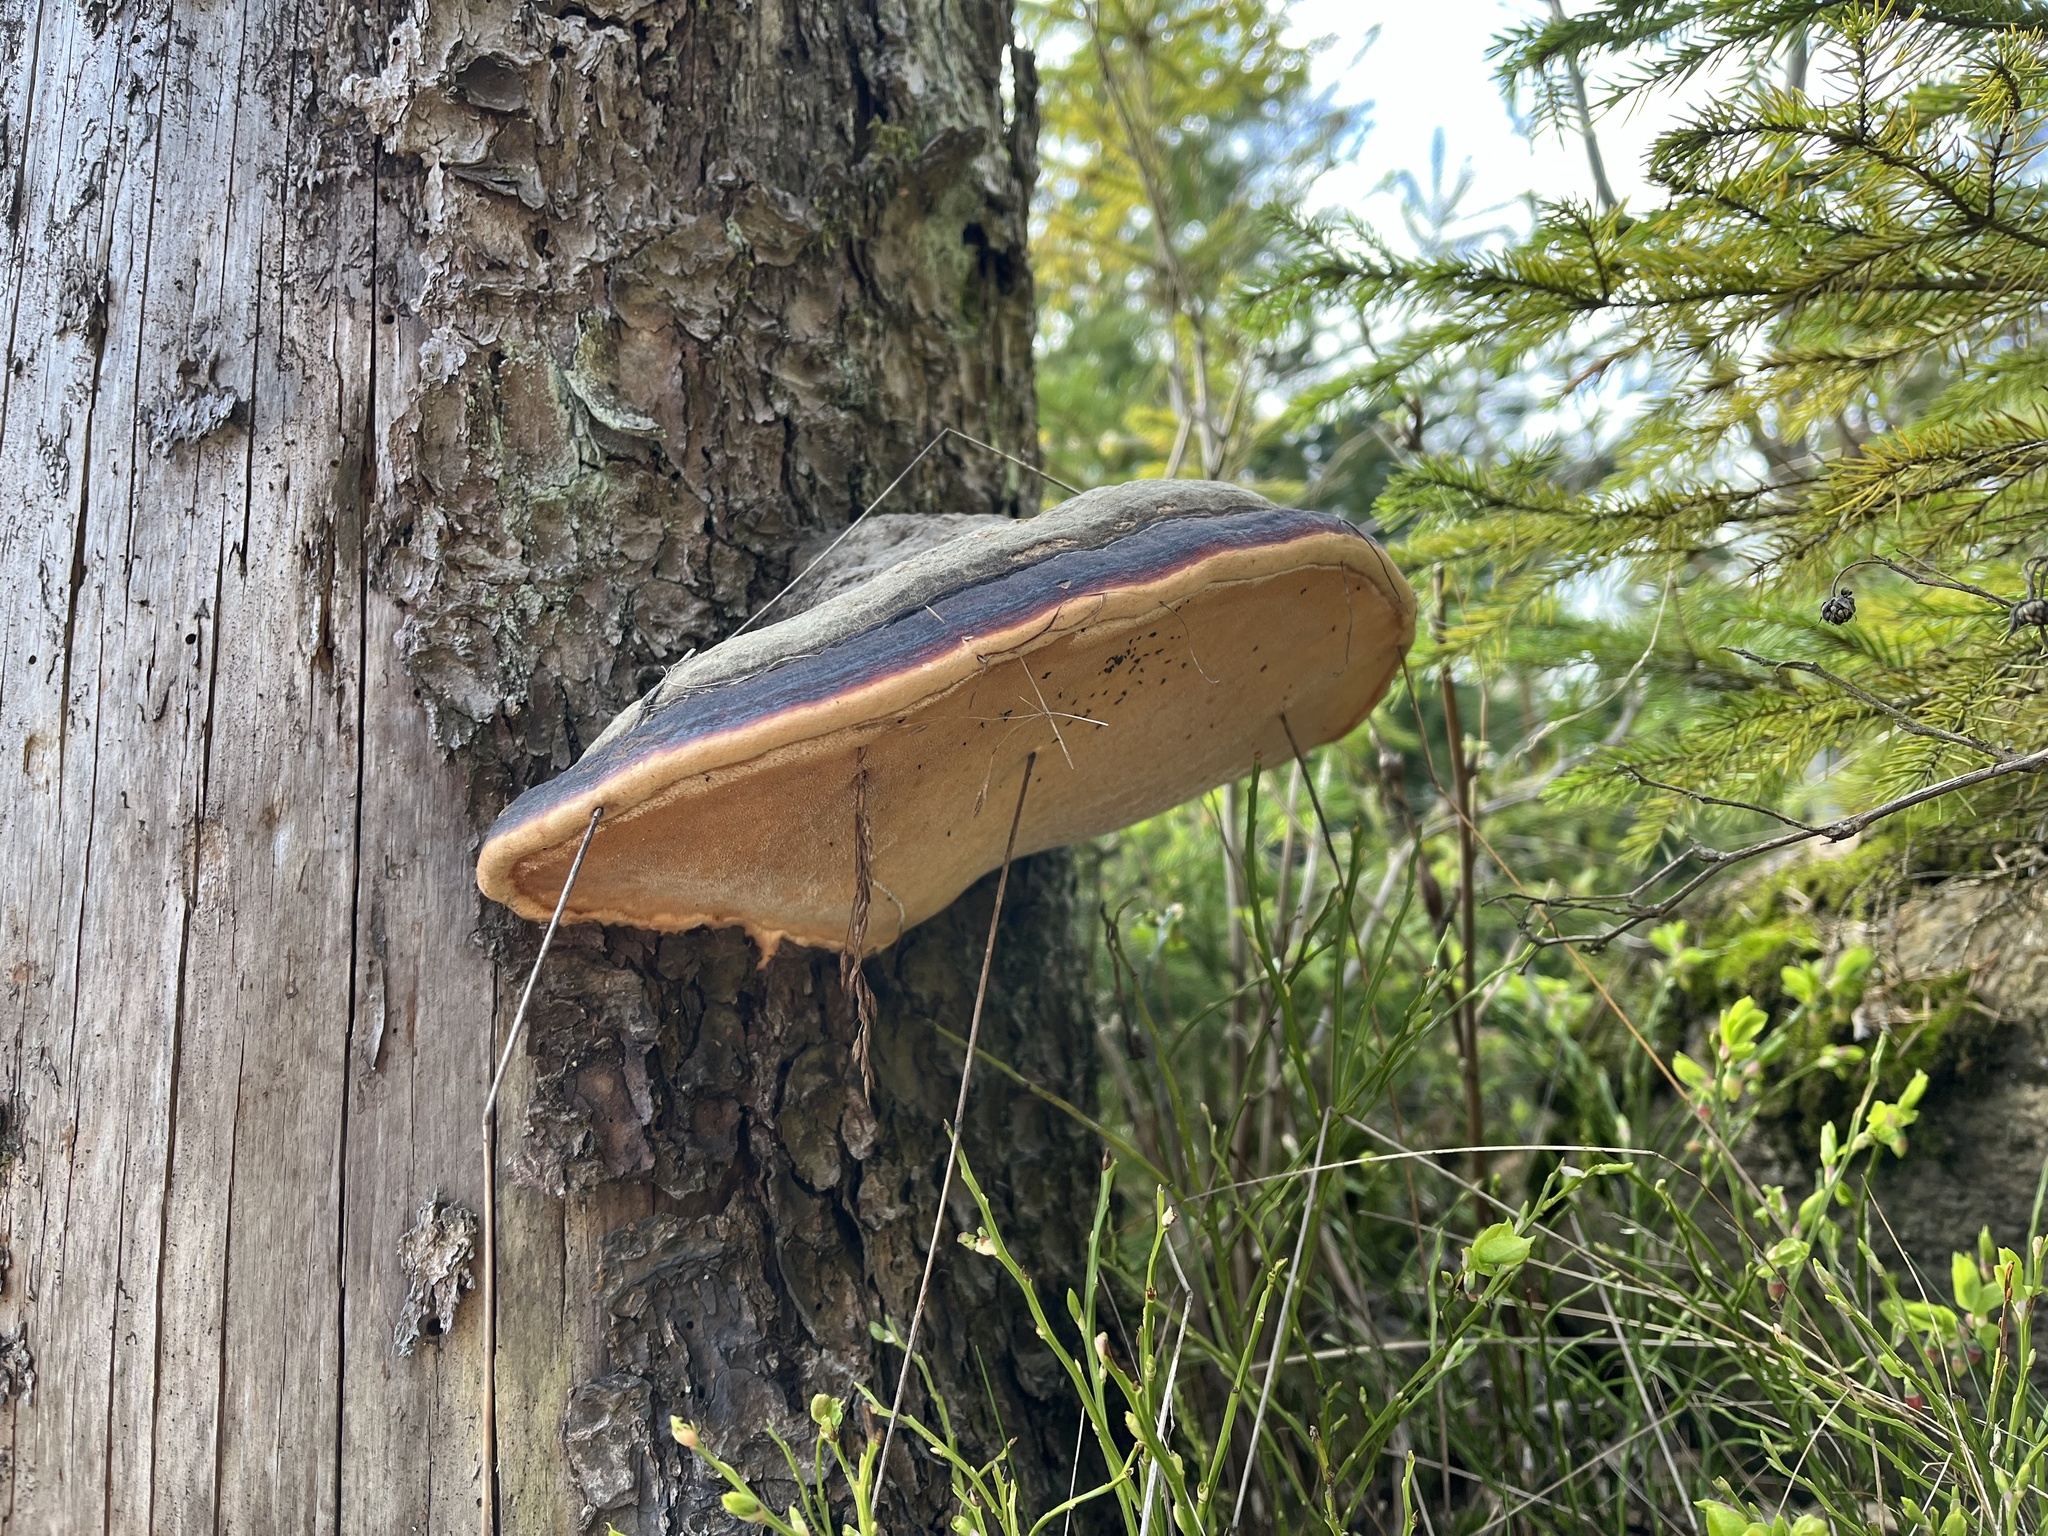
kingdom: Fungi
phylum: Basidiomycota
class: Agaricomycetes
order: Polyporales
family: Fomitopsidaceae
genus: Fomitopsis
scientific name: Fomitopsis pinicola
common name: Red-belted bracket
